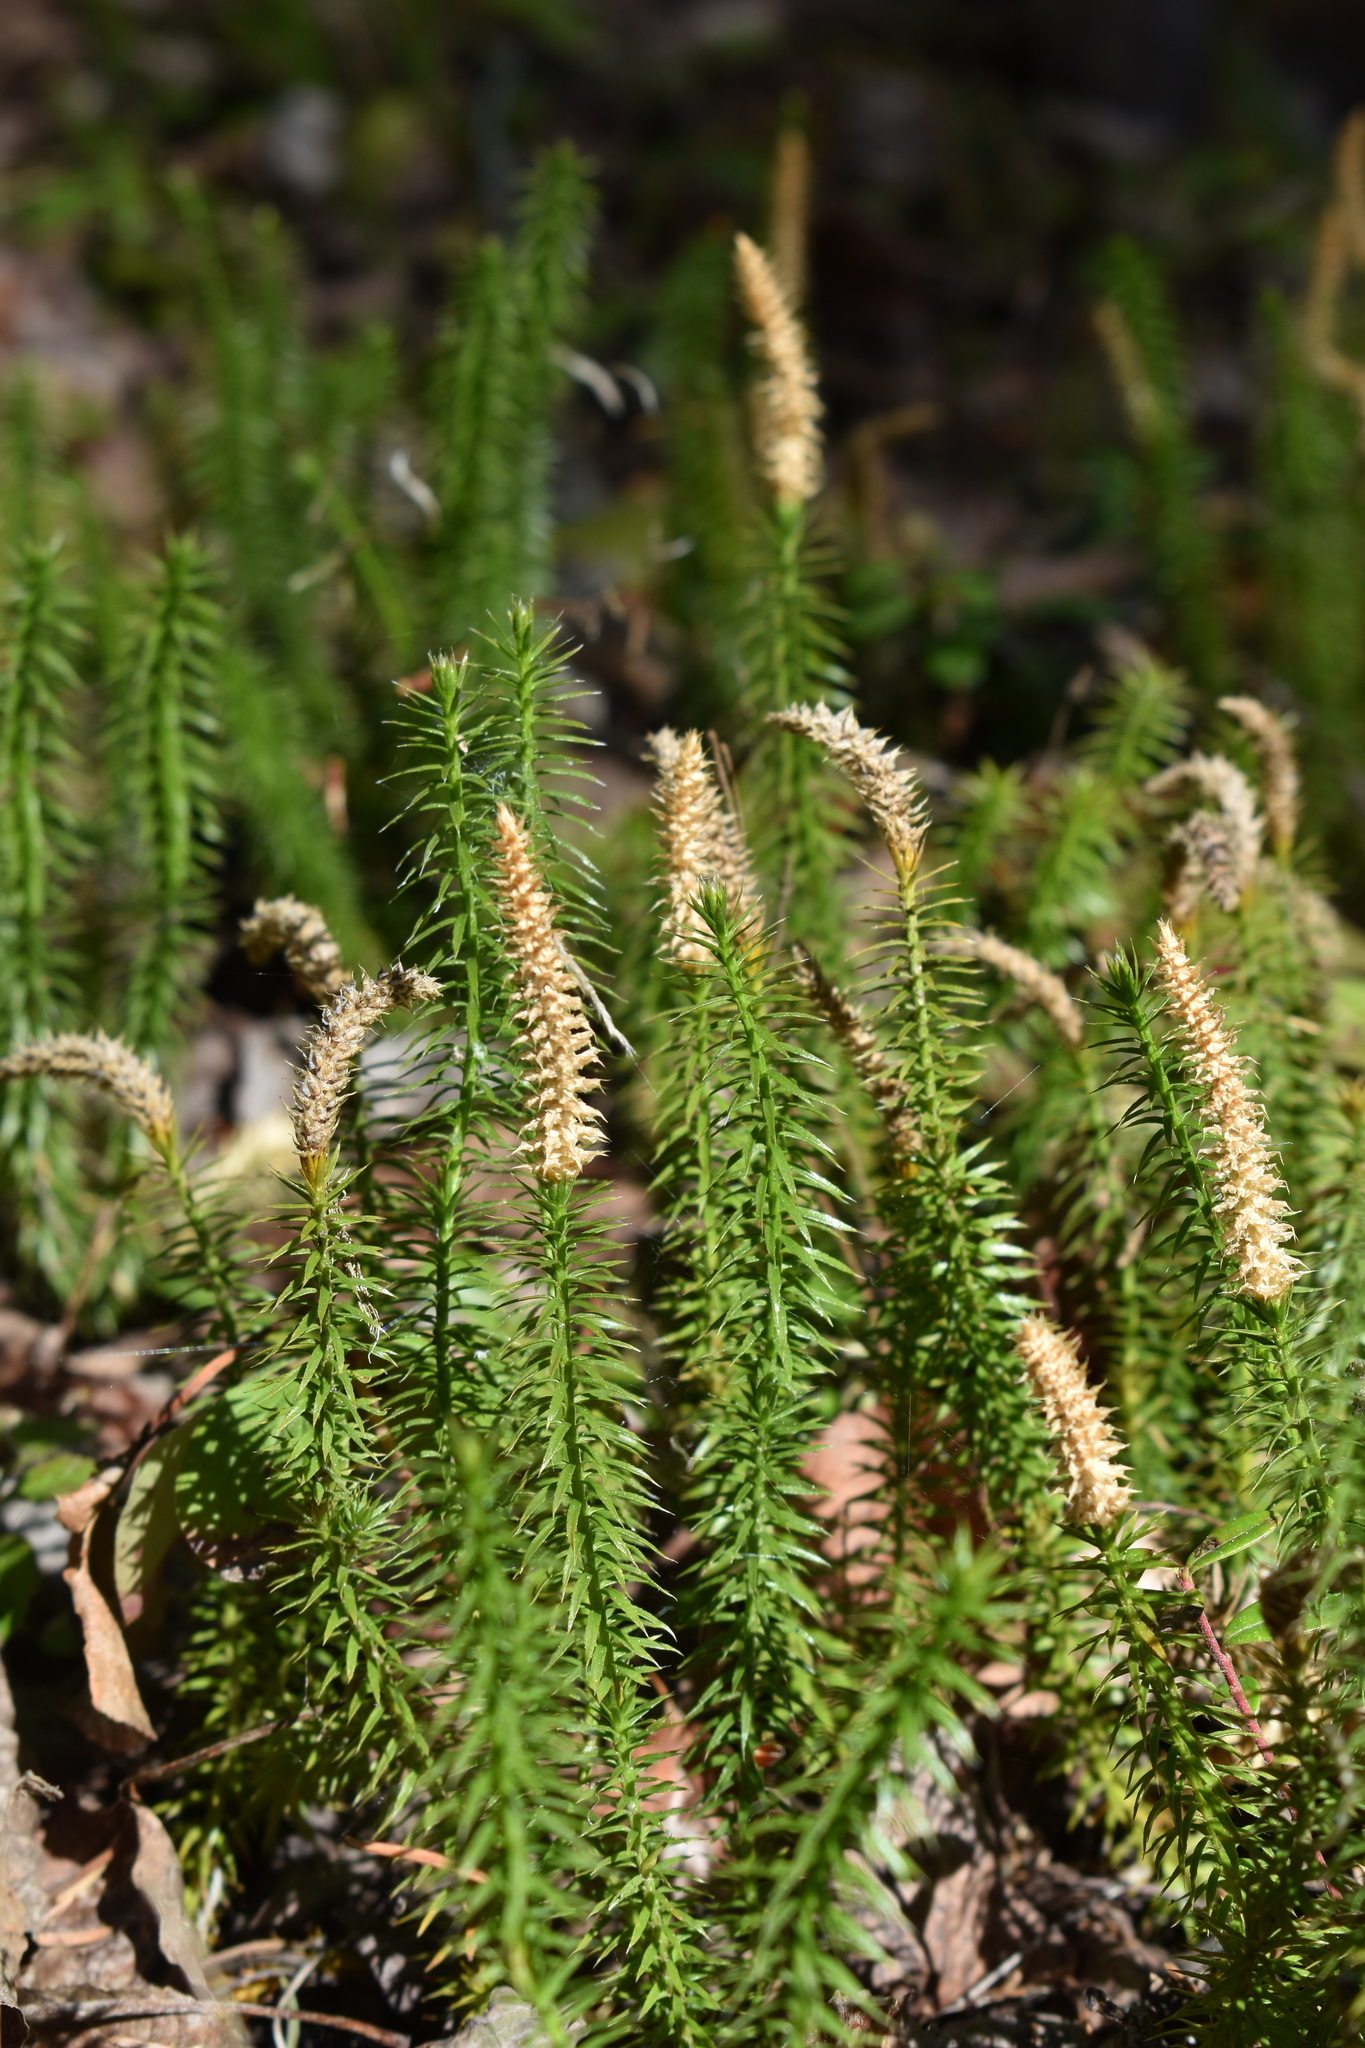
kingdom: Plantae
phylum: Tracheophyta
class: Lycopodiopsida
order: Lycopodiales
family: Lycopodiaceae
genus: Spinulum
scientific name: Spinulum annotinum
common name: Interrupted club-moss
